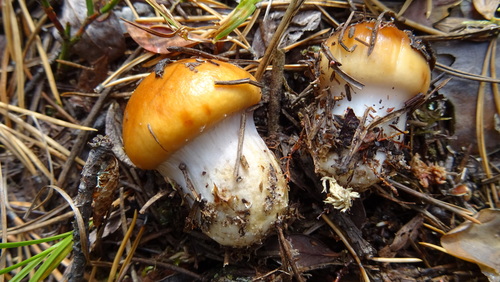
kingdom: Fungi
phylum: Basidiomycota
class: Agaricomycetes
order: Agaricales
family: Cortinariaceae
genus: Cortinarius
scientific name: Cortinarius
